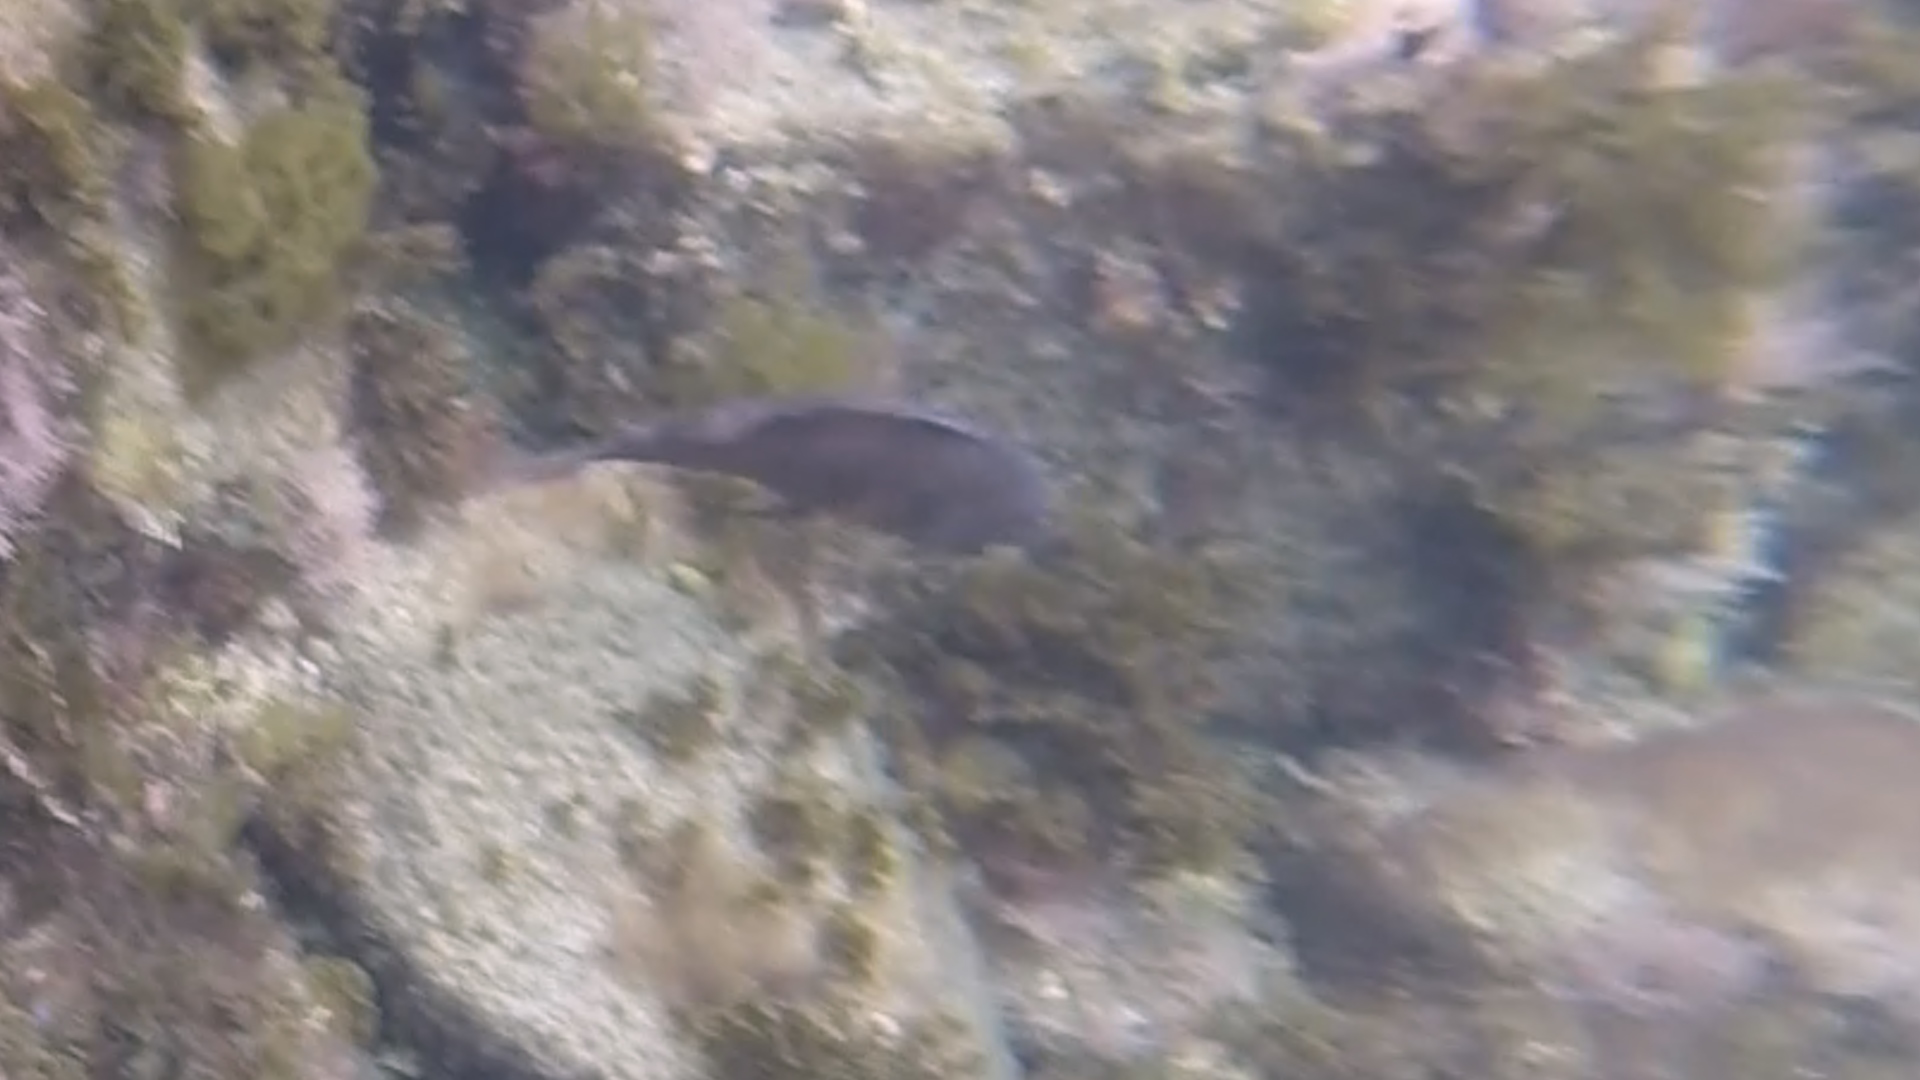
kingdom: Animalia
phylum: Chordata
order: Perciformes
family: Labridae
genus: Semicossyphus
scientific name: Semicossyphus pulcher
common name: California sheephead
